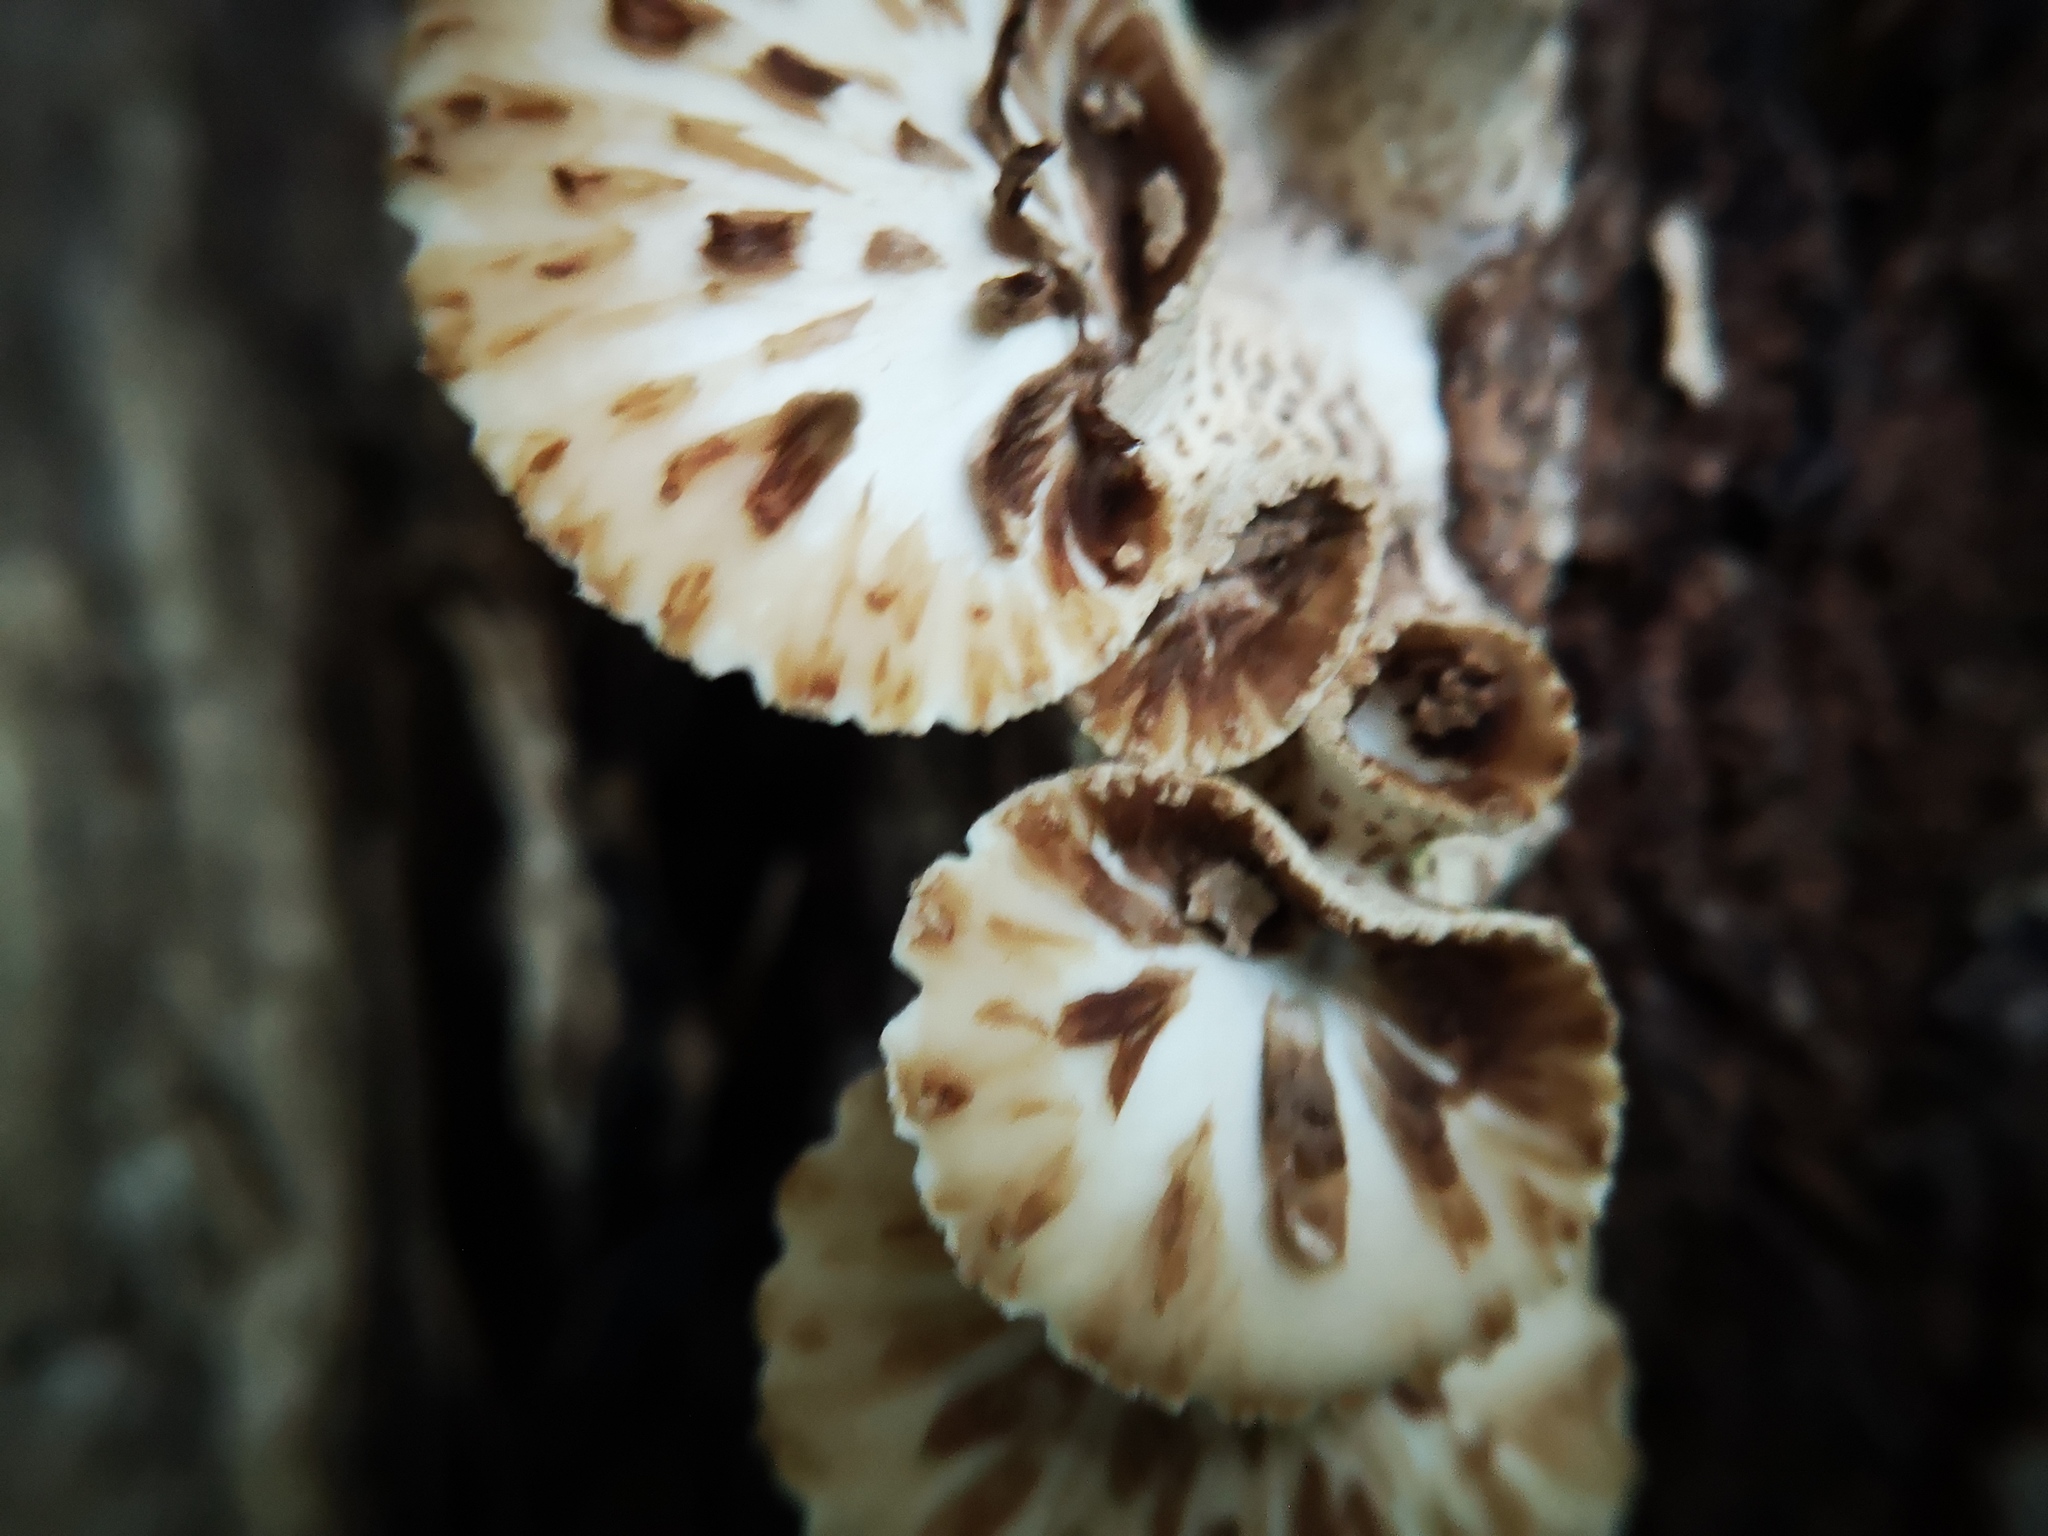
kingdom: Fungi
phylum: Basidiomycota
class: Agaricomycetes
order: Polyporales
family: Polyporaceae
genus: Cerioporus
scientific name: Cerioporus squamosus
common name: Dryad's saddle
